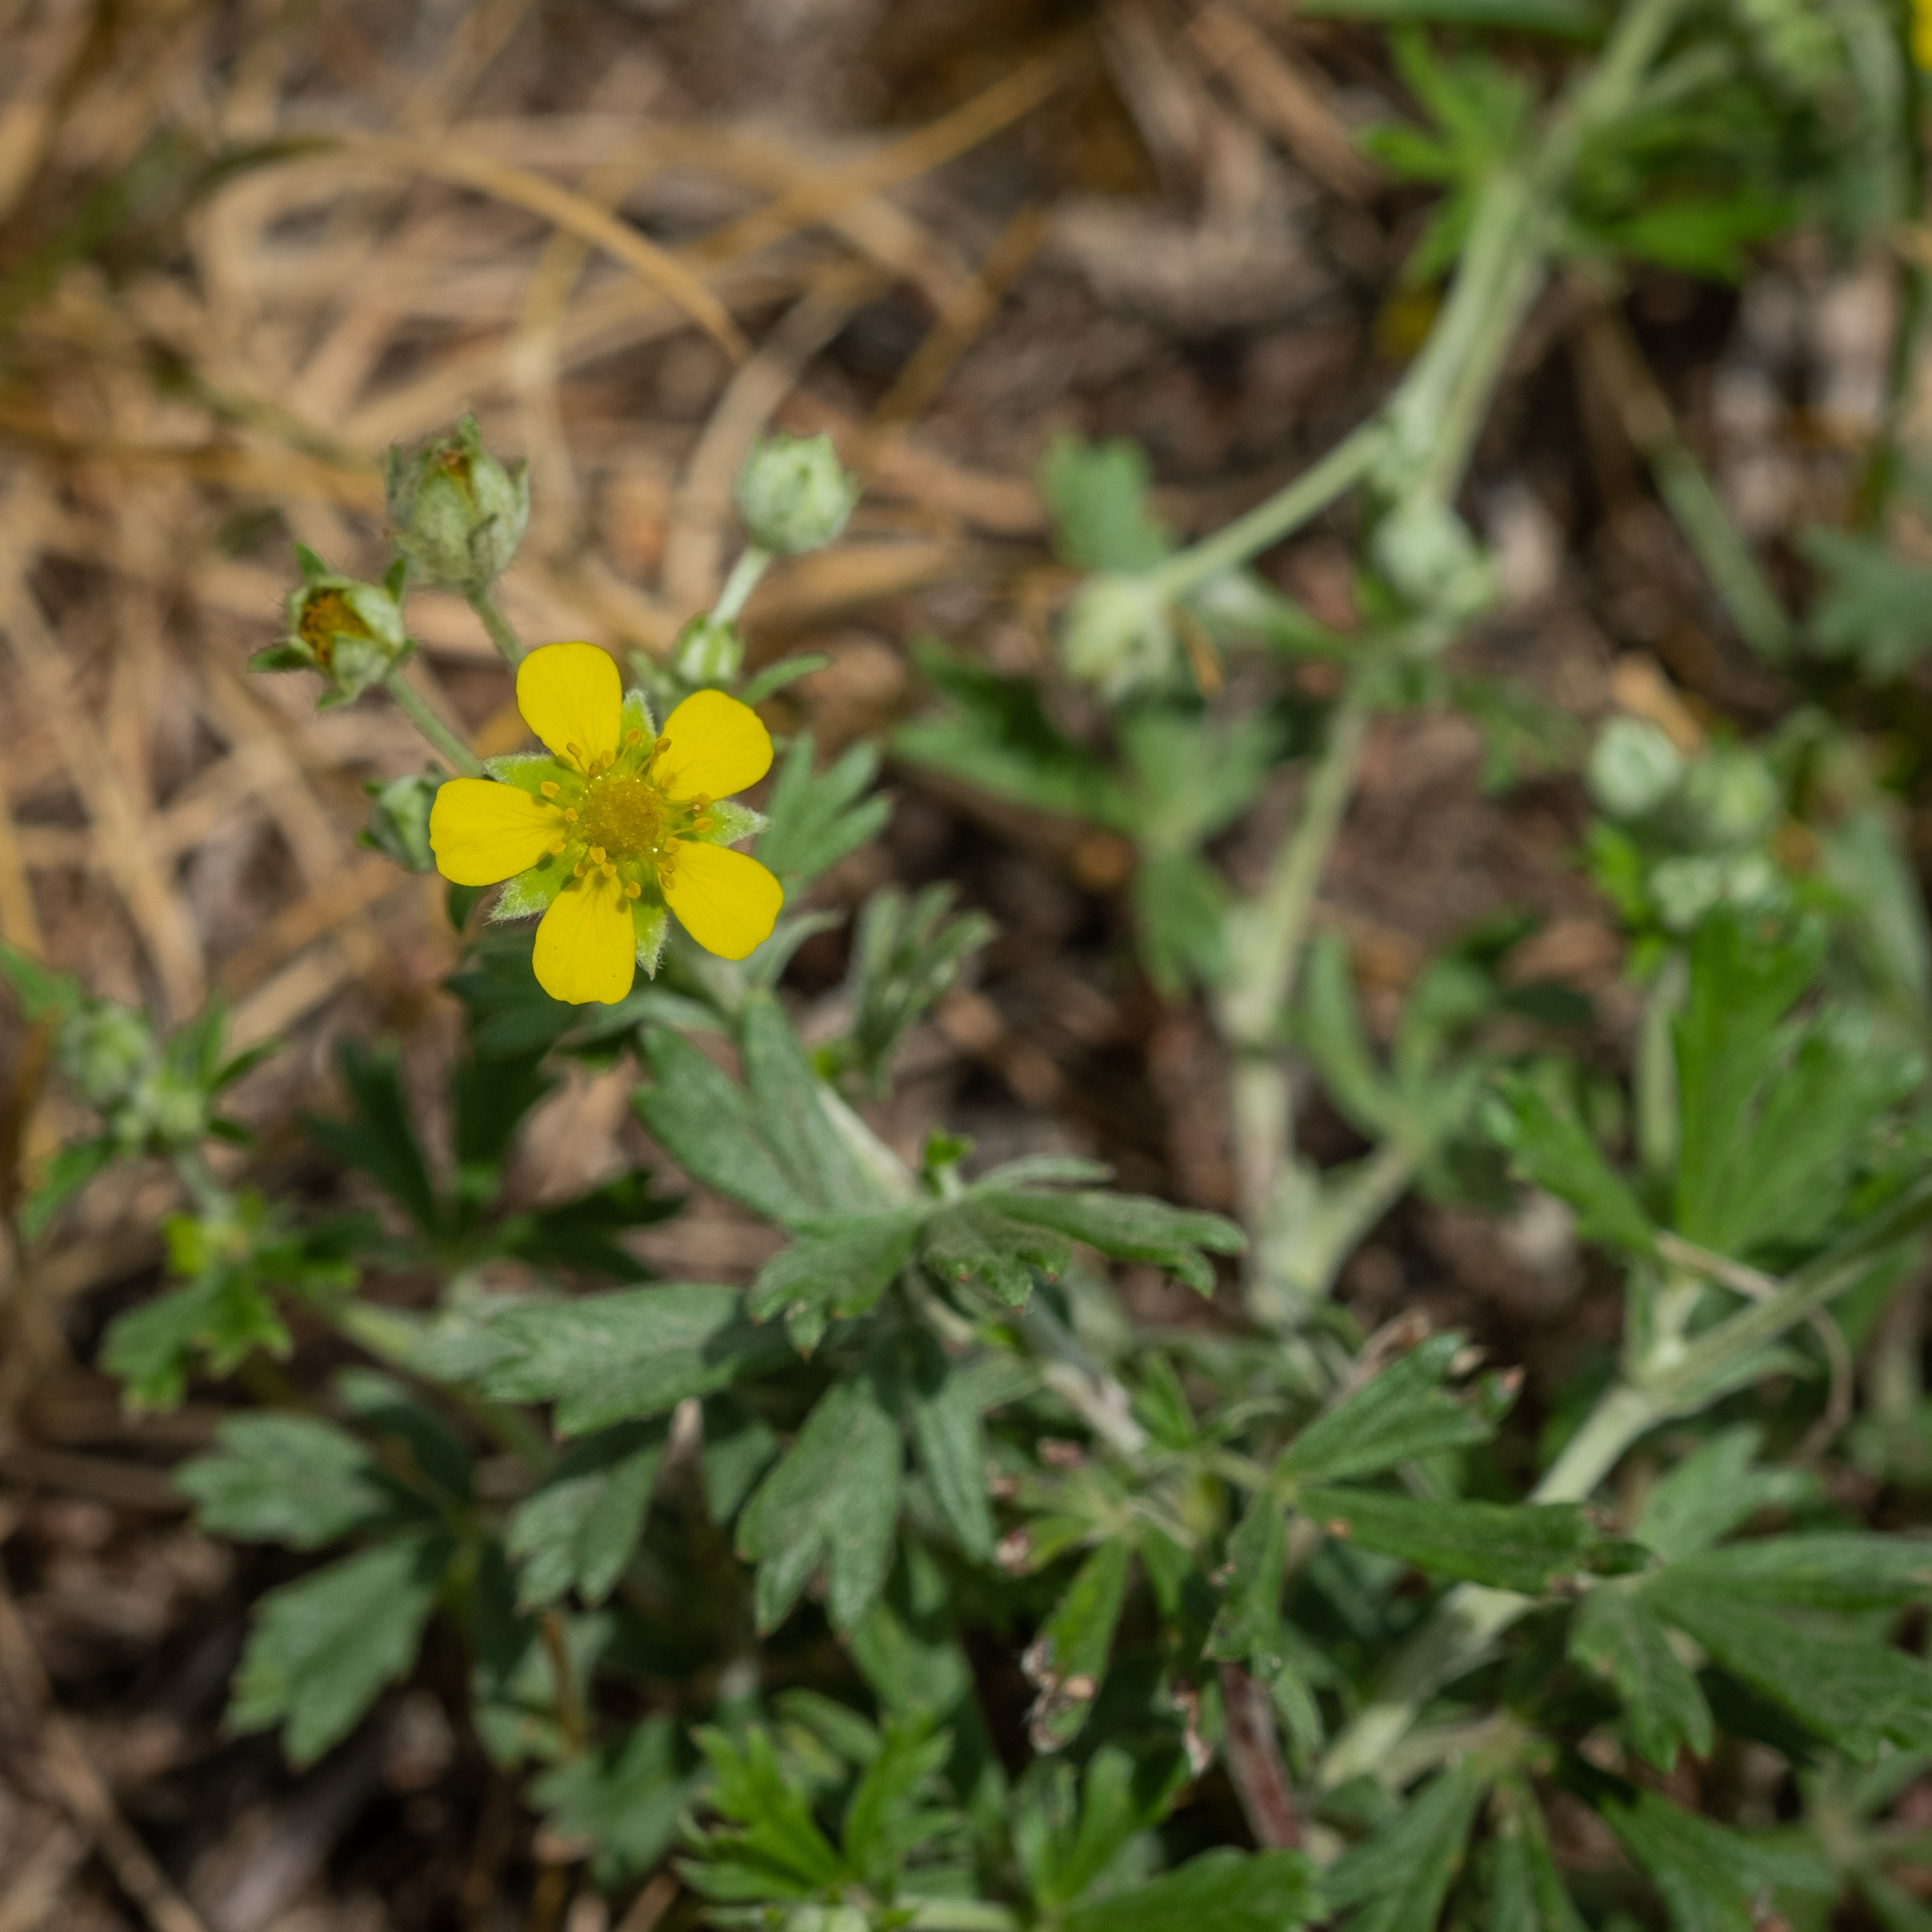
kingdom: Plantae
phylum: Tracheophyta
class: Magnoliopsida
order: Rosales
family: Rosaceae
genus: Potentilla
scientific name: Potentilla argentea
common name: Hoary cinquefoil
